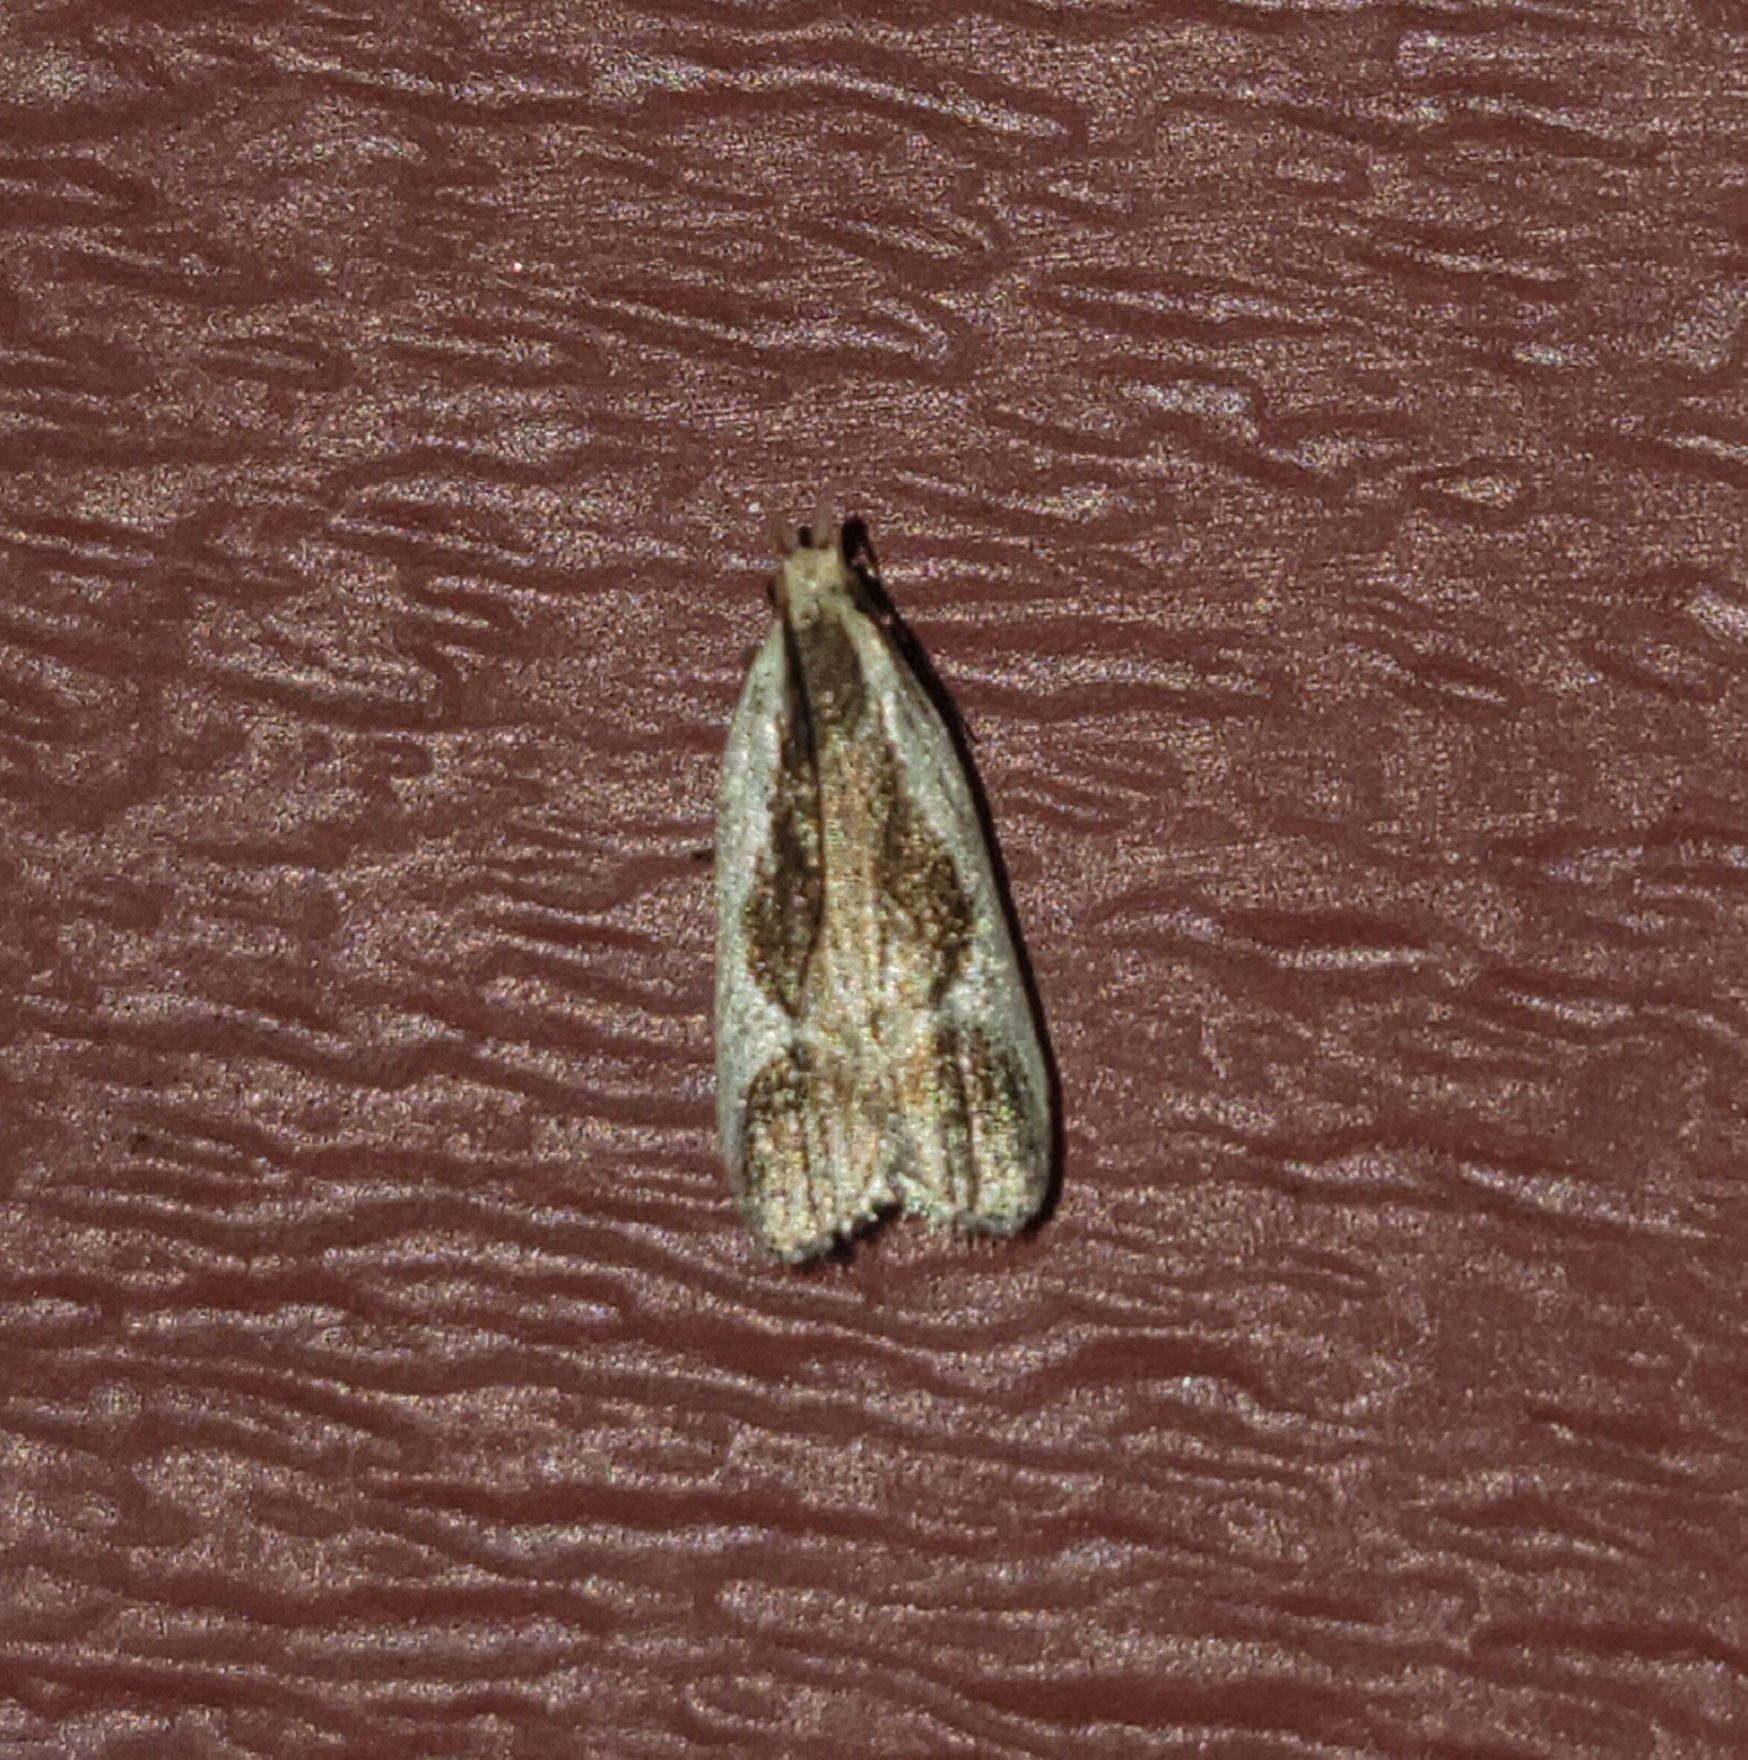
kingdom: Animalia
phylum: Arthropoda
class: Insecta
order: Lepidoptera
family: Gelechiidae
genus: Dichomeris
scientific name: Dichomeris flavocostella
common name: Cream-edged dichomeris moth
